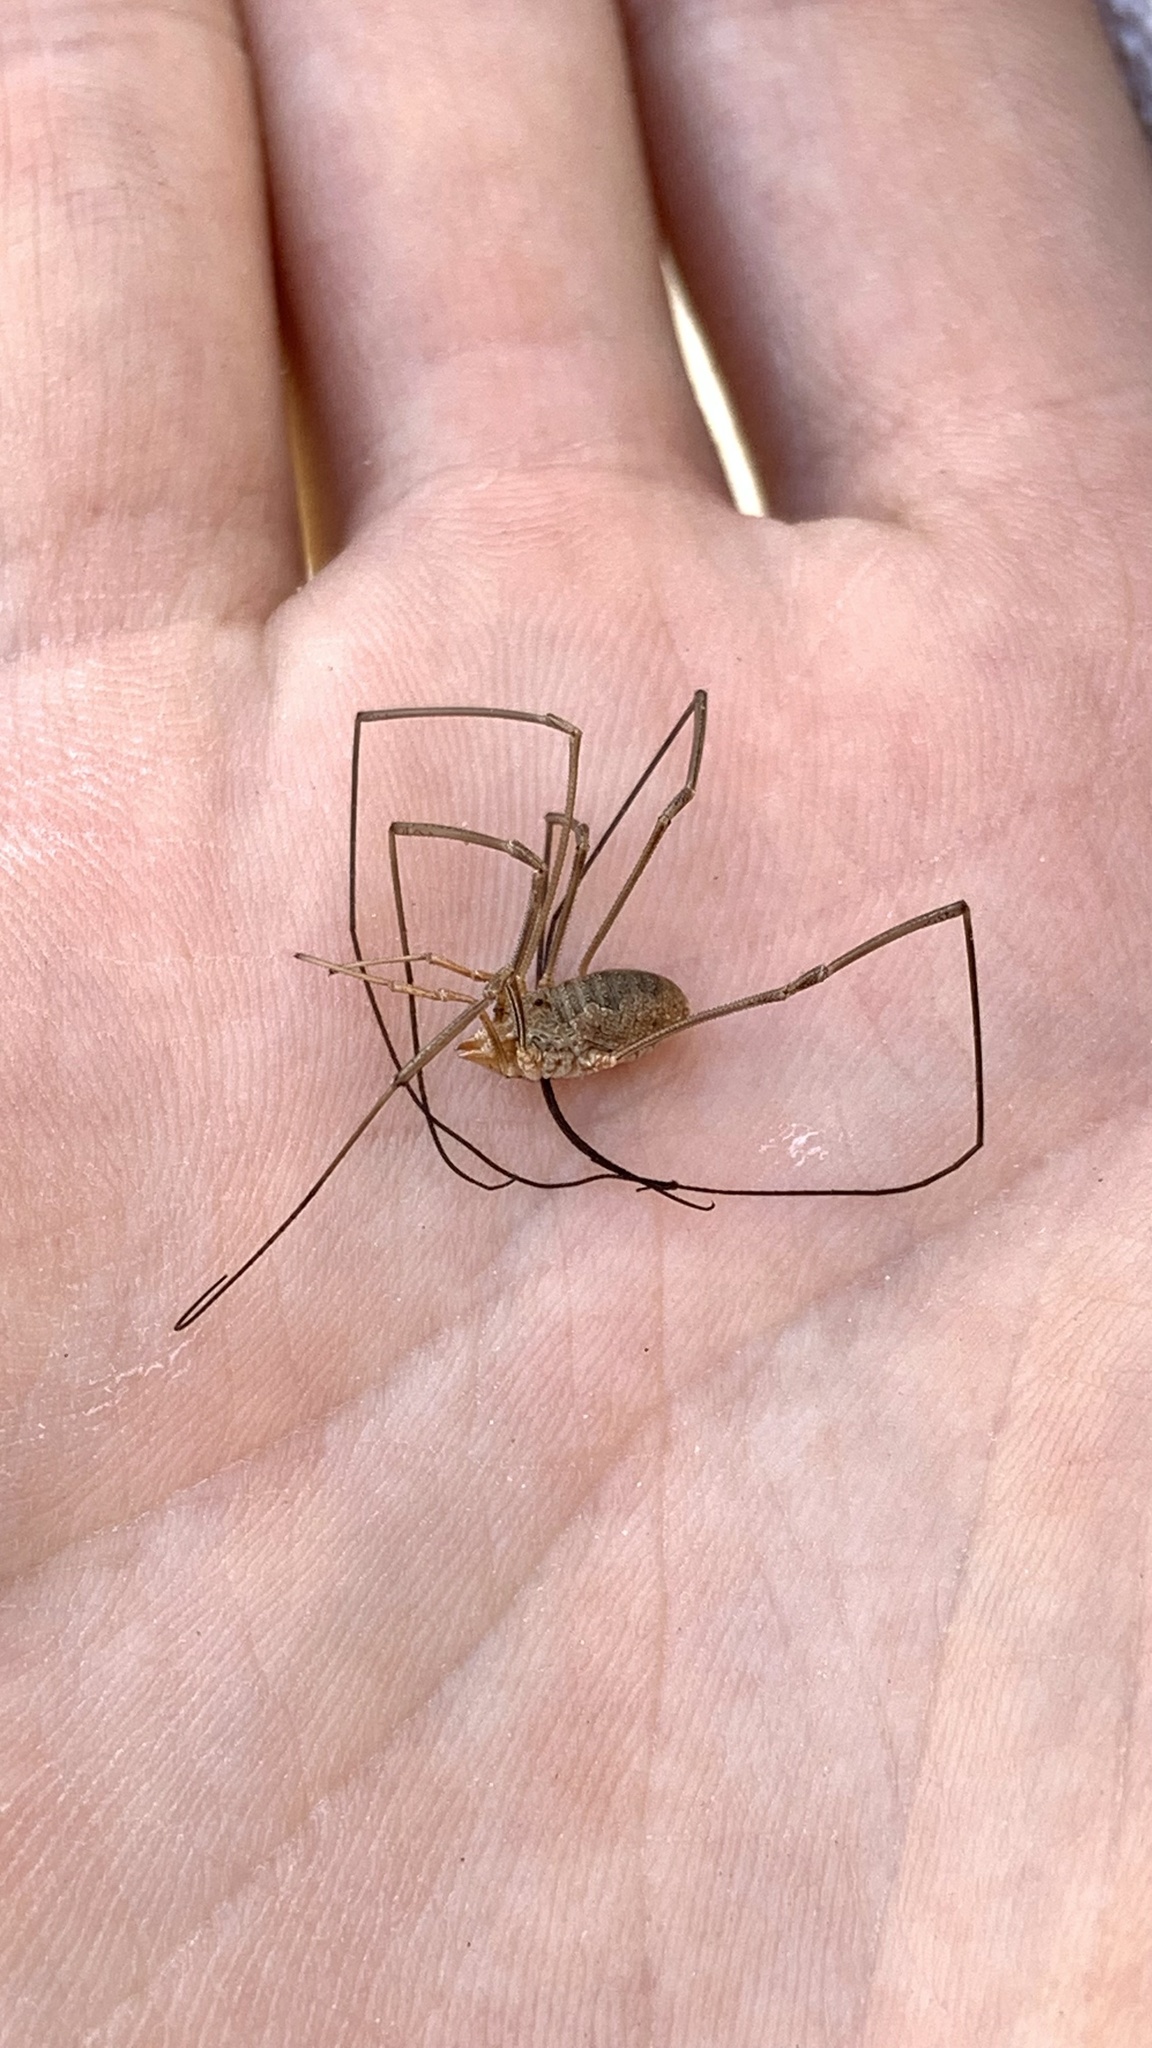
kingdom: Animalia
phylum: Arthropoda
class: Arachnida
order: Opiliones
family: Phalangiidae
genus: Phalangium
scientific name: Phalangium opilio
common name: Daddy longleg
